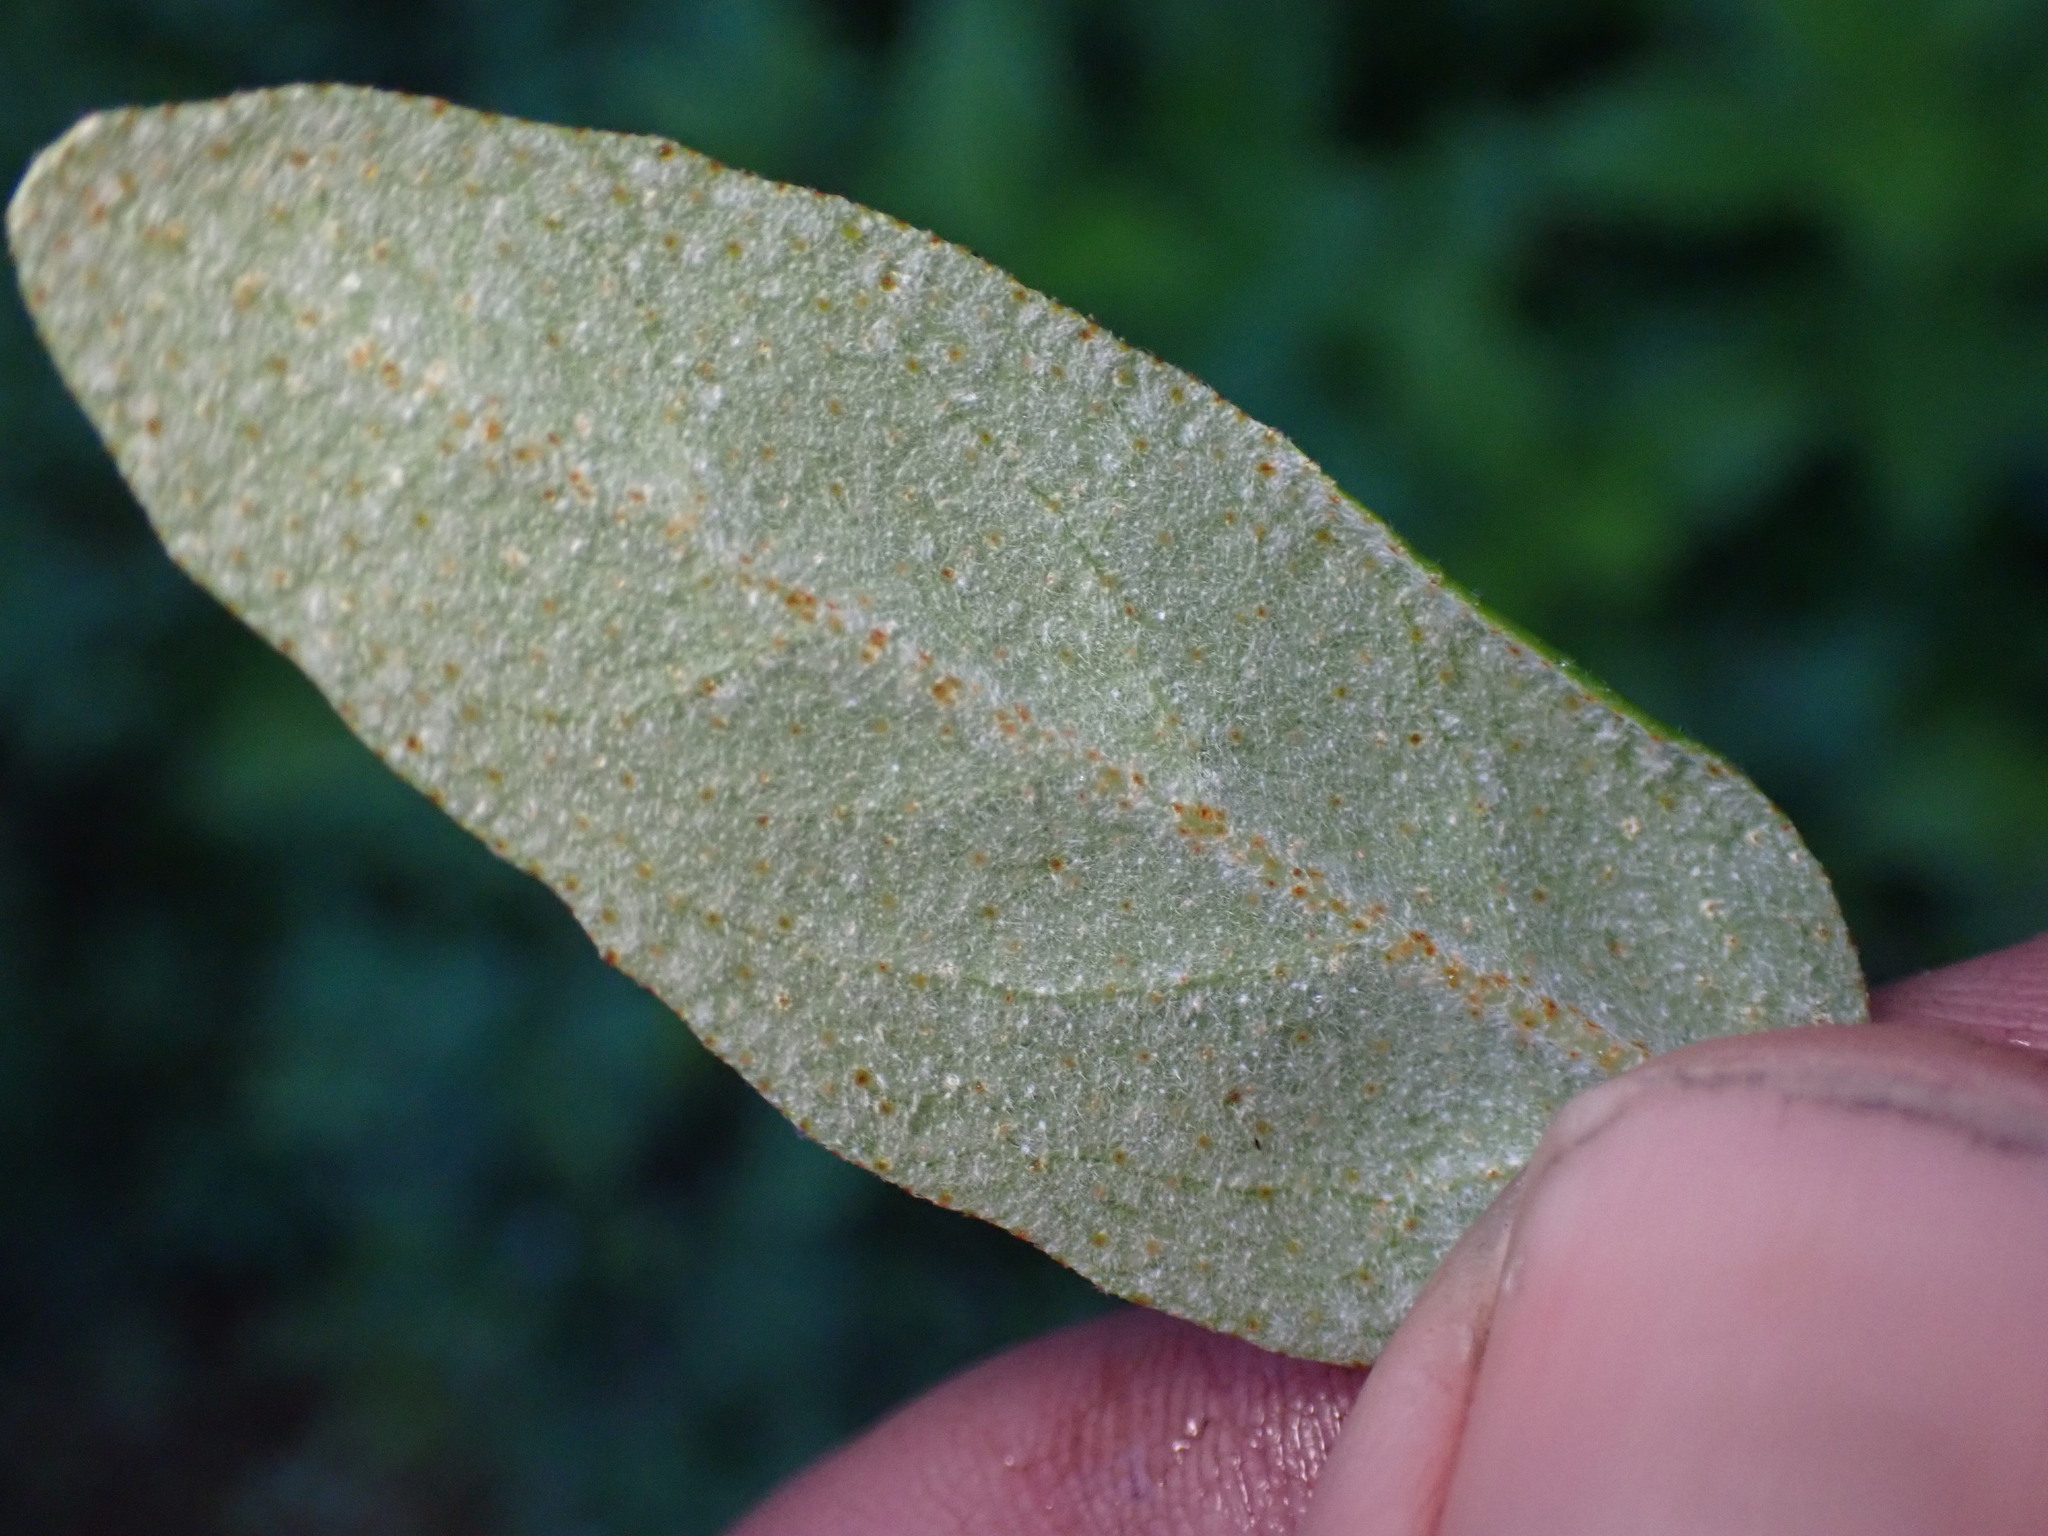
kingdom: Plantae
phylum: Tracheophyta
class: Magnoliopsida
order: Rosales
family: Elaeagnaceae
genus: Shepherdia
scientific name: Shepherdia canadensis
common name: Soapberry
